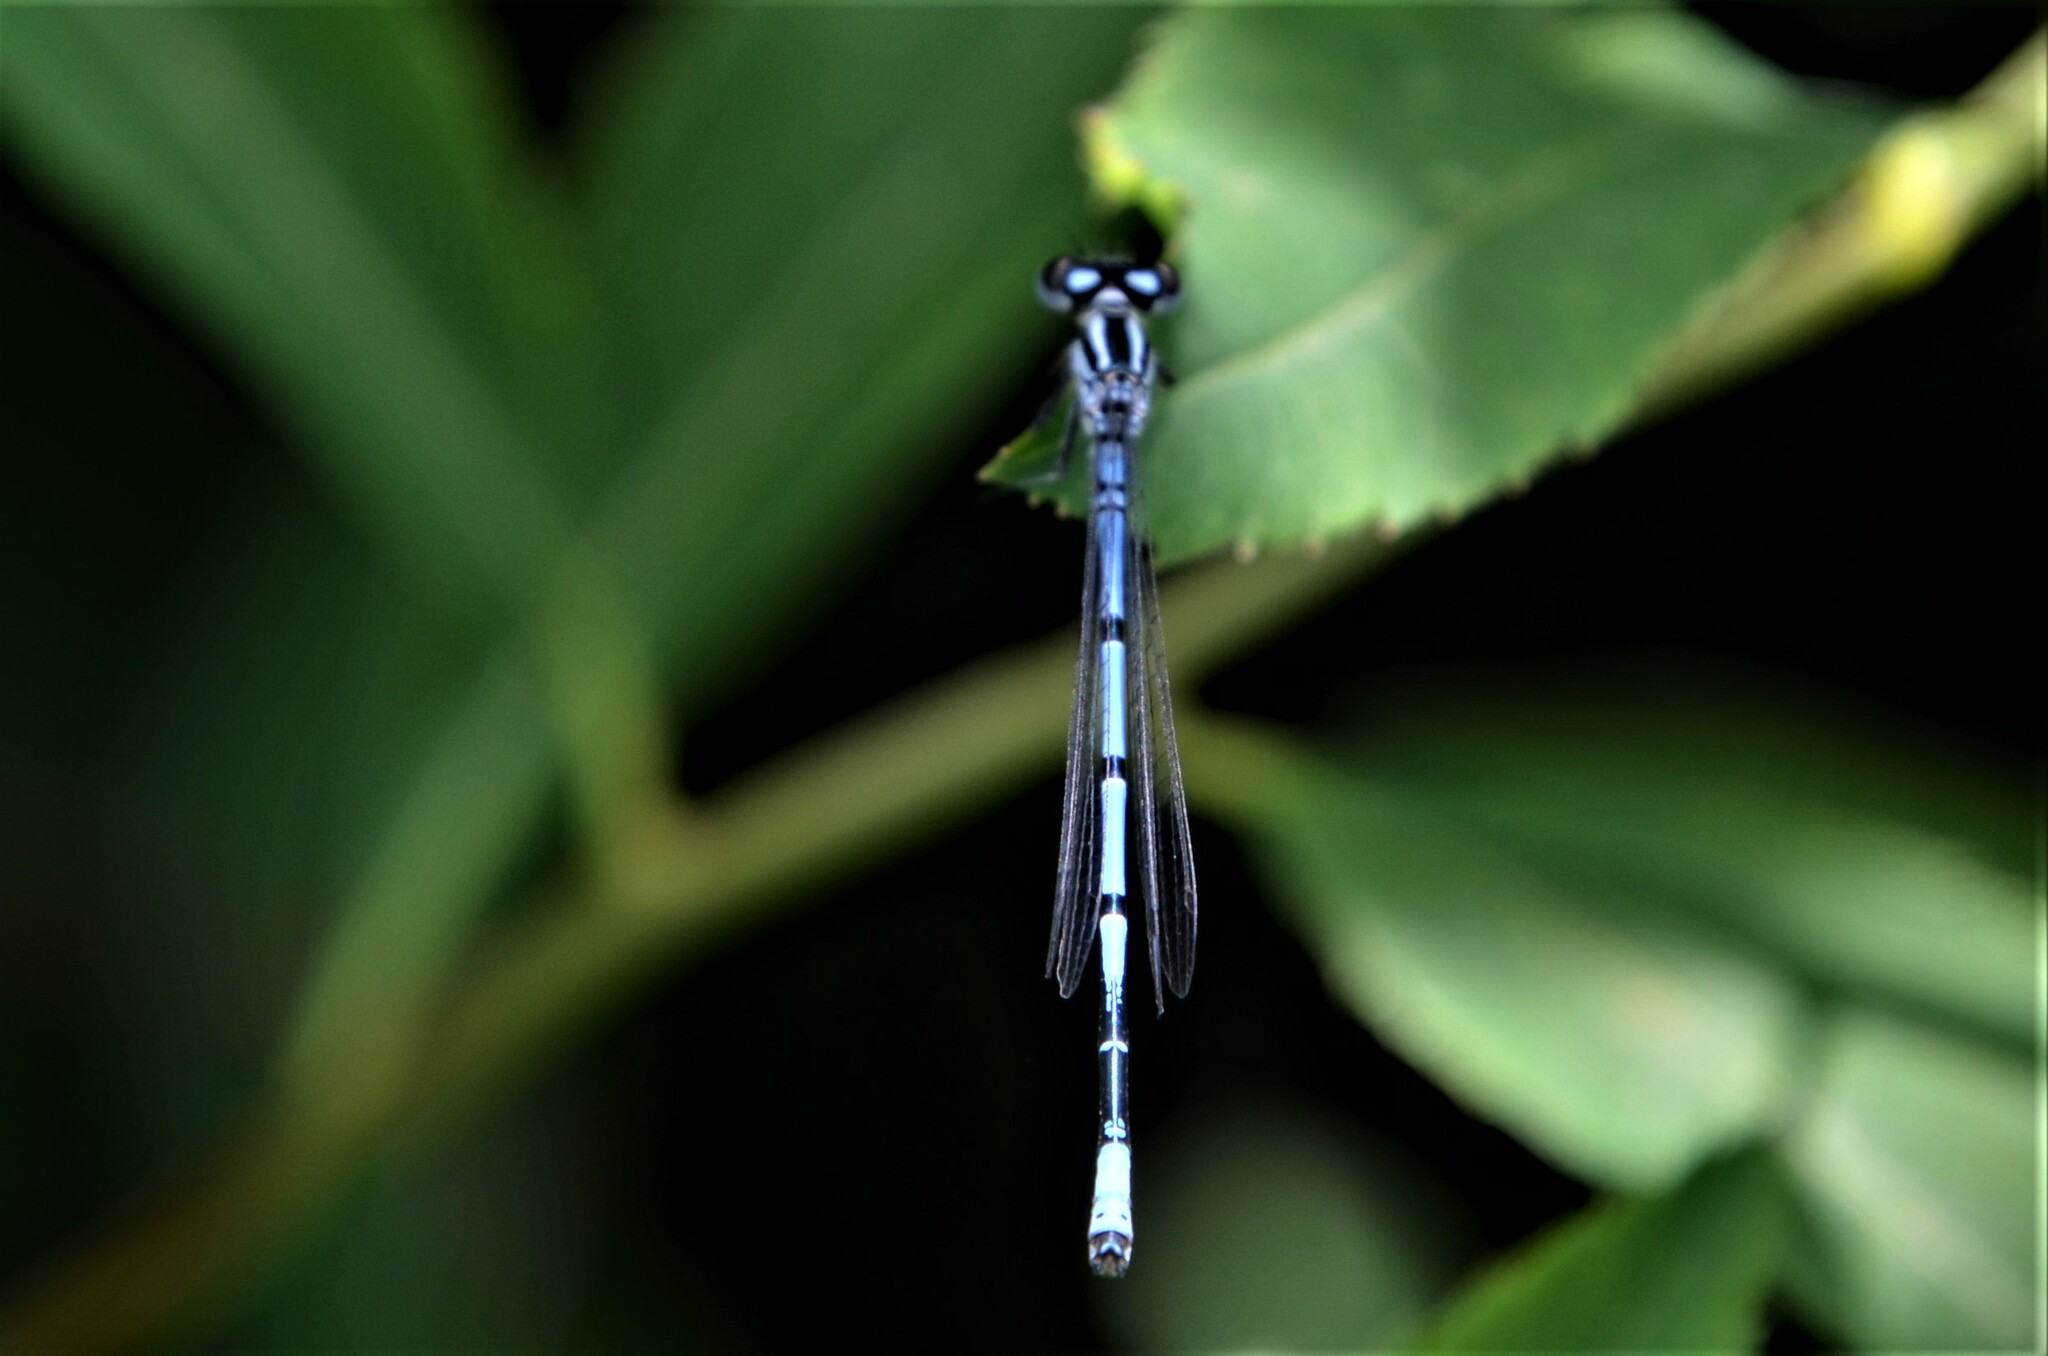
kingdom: Animalia
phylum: Arthropoda
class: Insecta
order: Odonata
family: Coenagrionidae
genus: Coenagrion
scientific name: Coenagrion puella
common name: Azure damselfly
